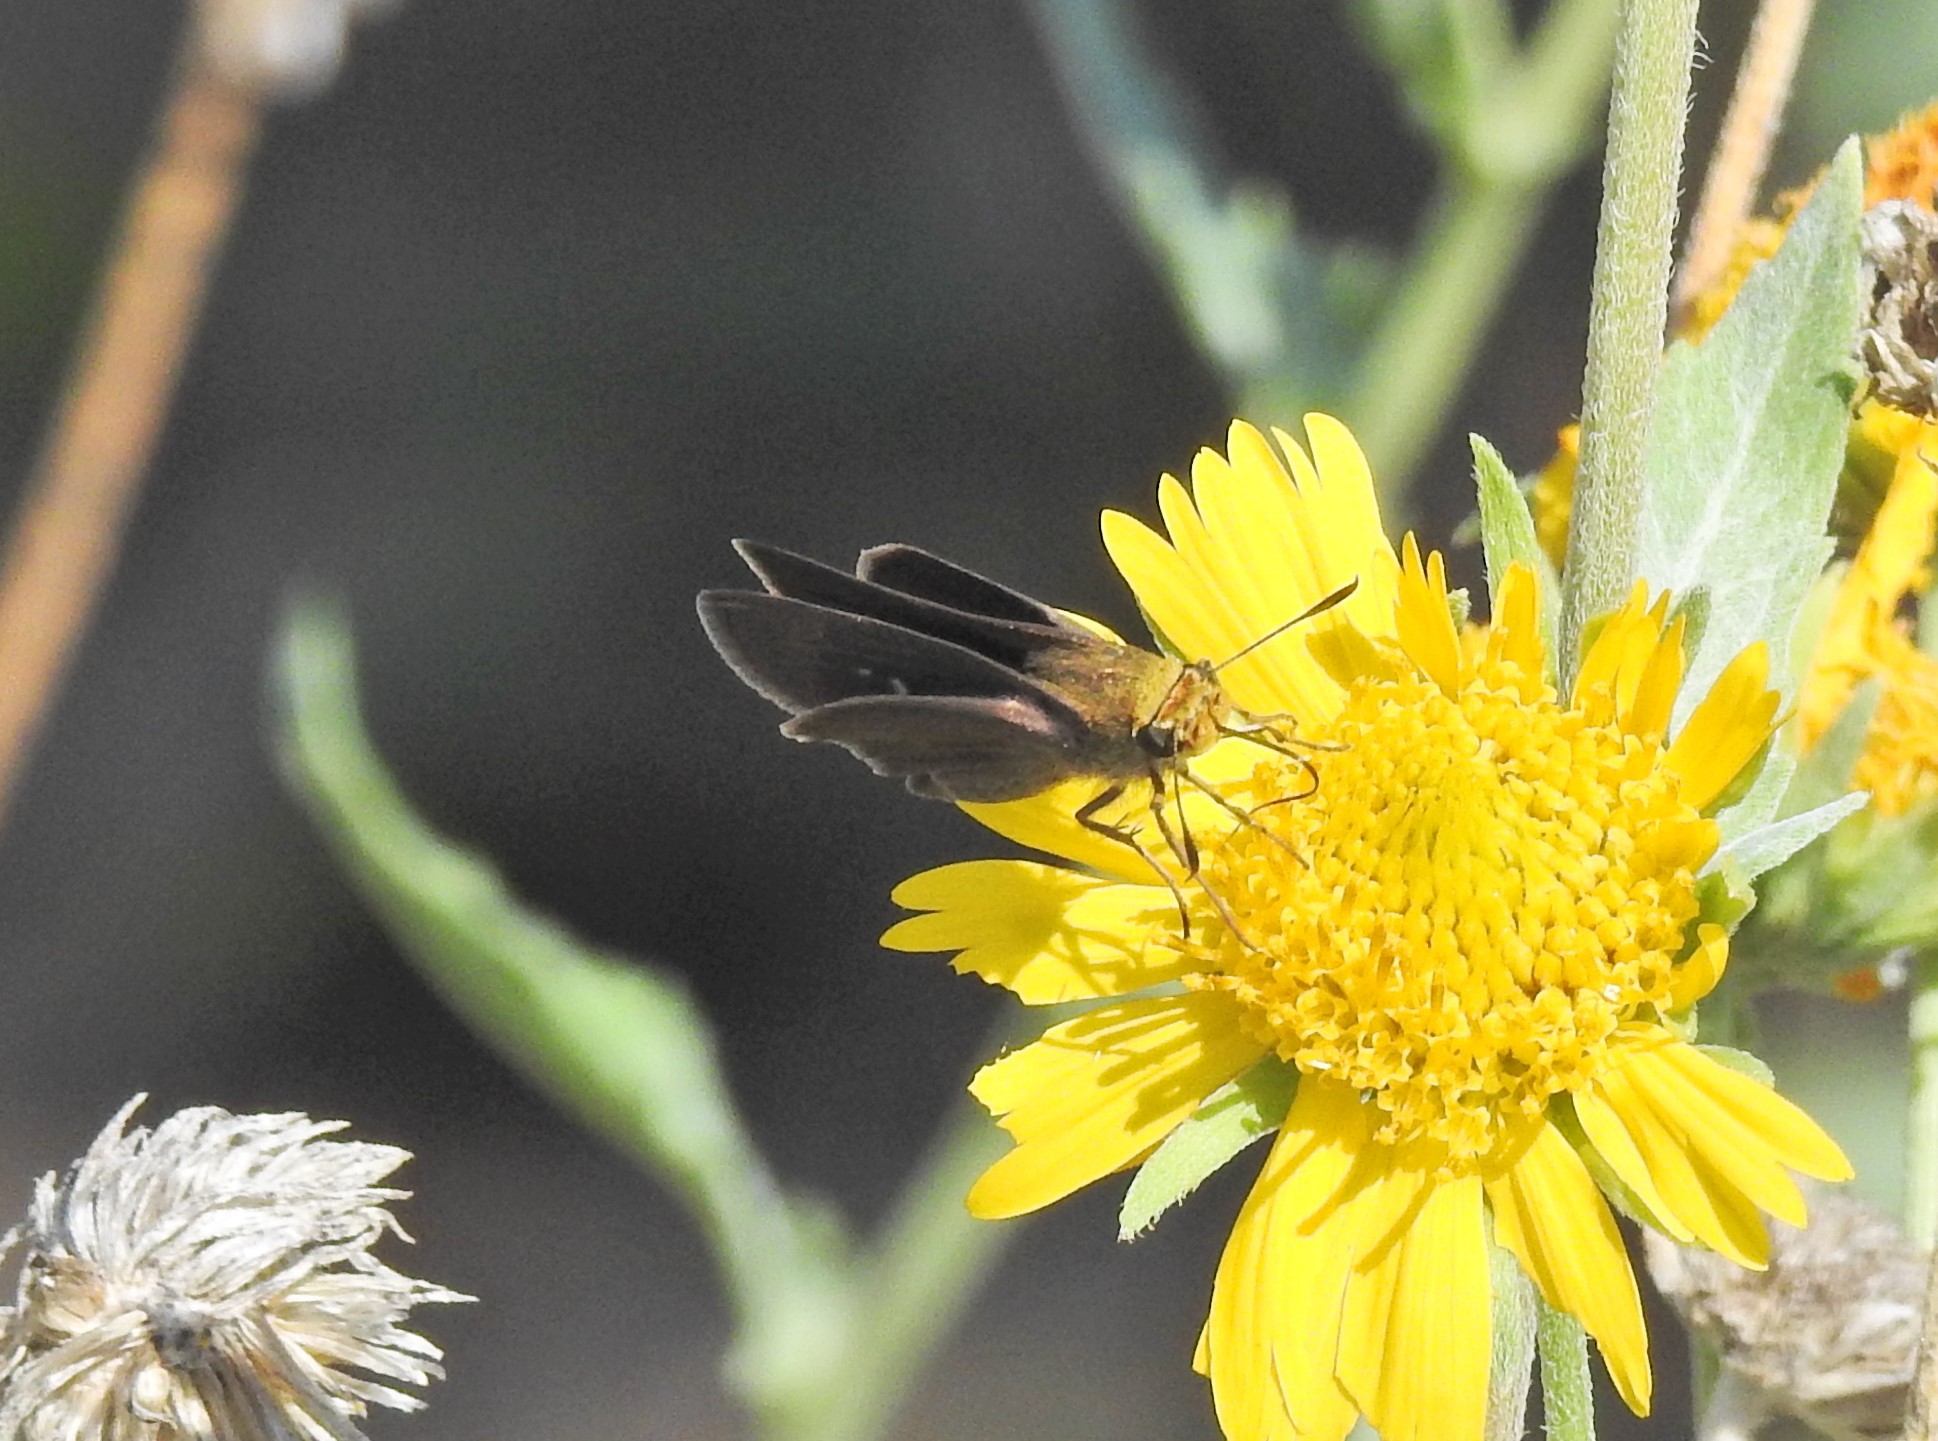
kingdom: Animalia
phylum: Arthropoda
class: Insecta
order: Lepidoptera
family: Hesperiidae
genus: Euphyes
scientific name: Euphyes vestris
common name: Dun skipper
